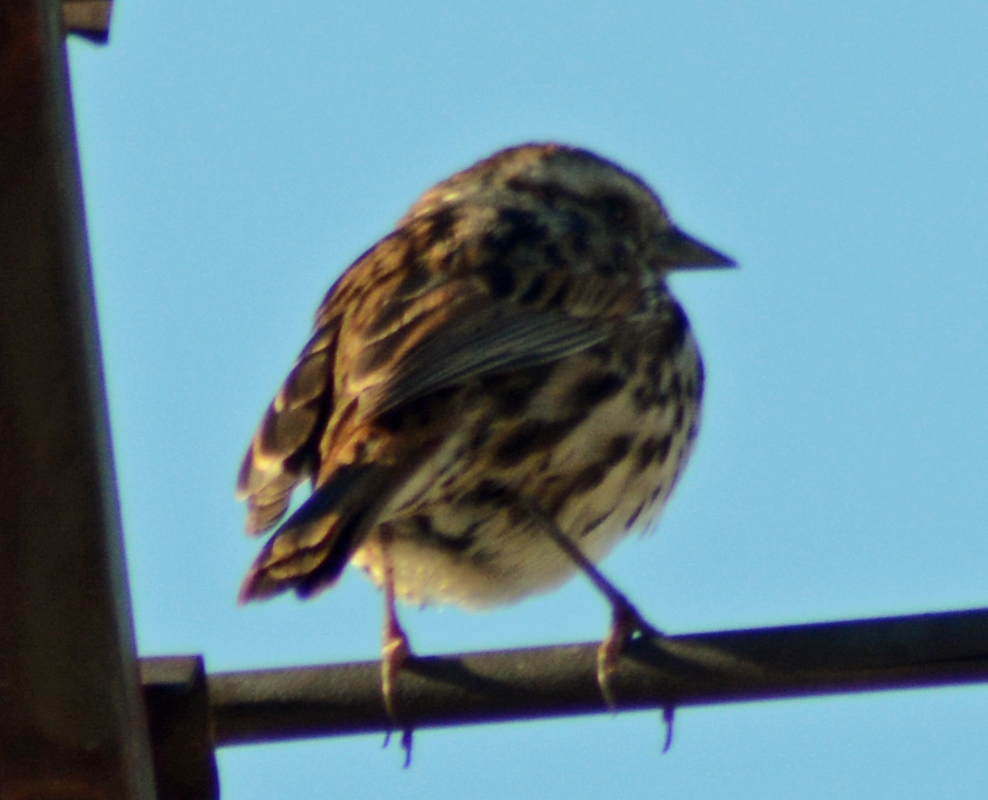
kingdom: Animalia
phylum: Chordata
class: Aves
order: Passeriformes
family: Passerellidae
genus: Melospiza
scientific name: Melospiza melodia
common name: Song sparrow
